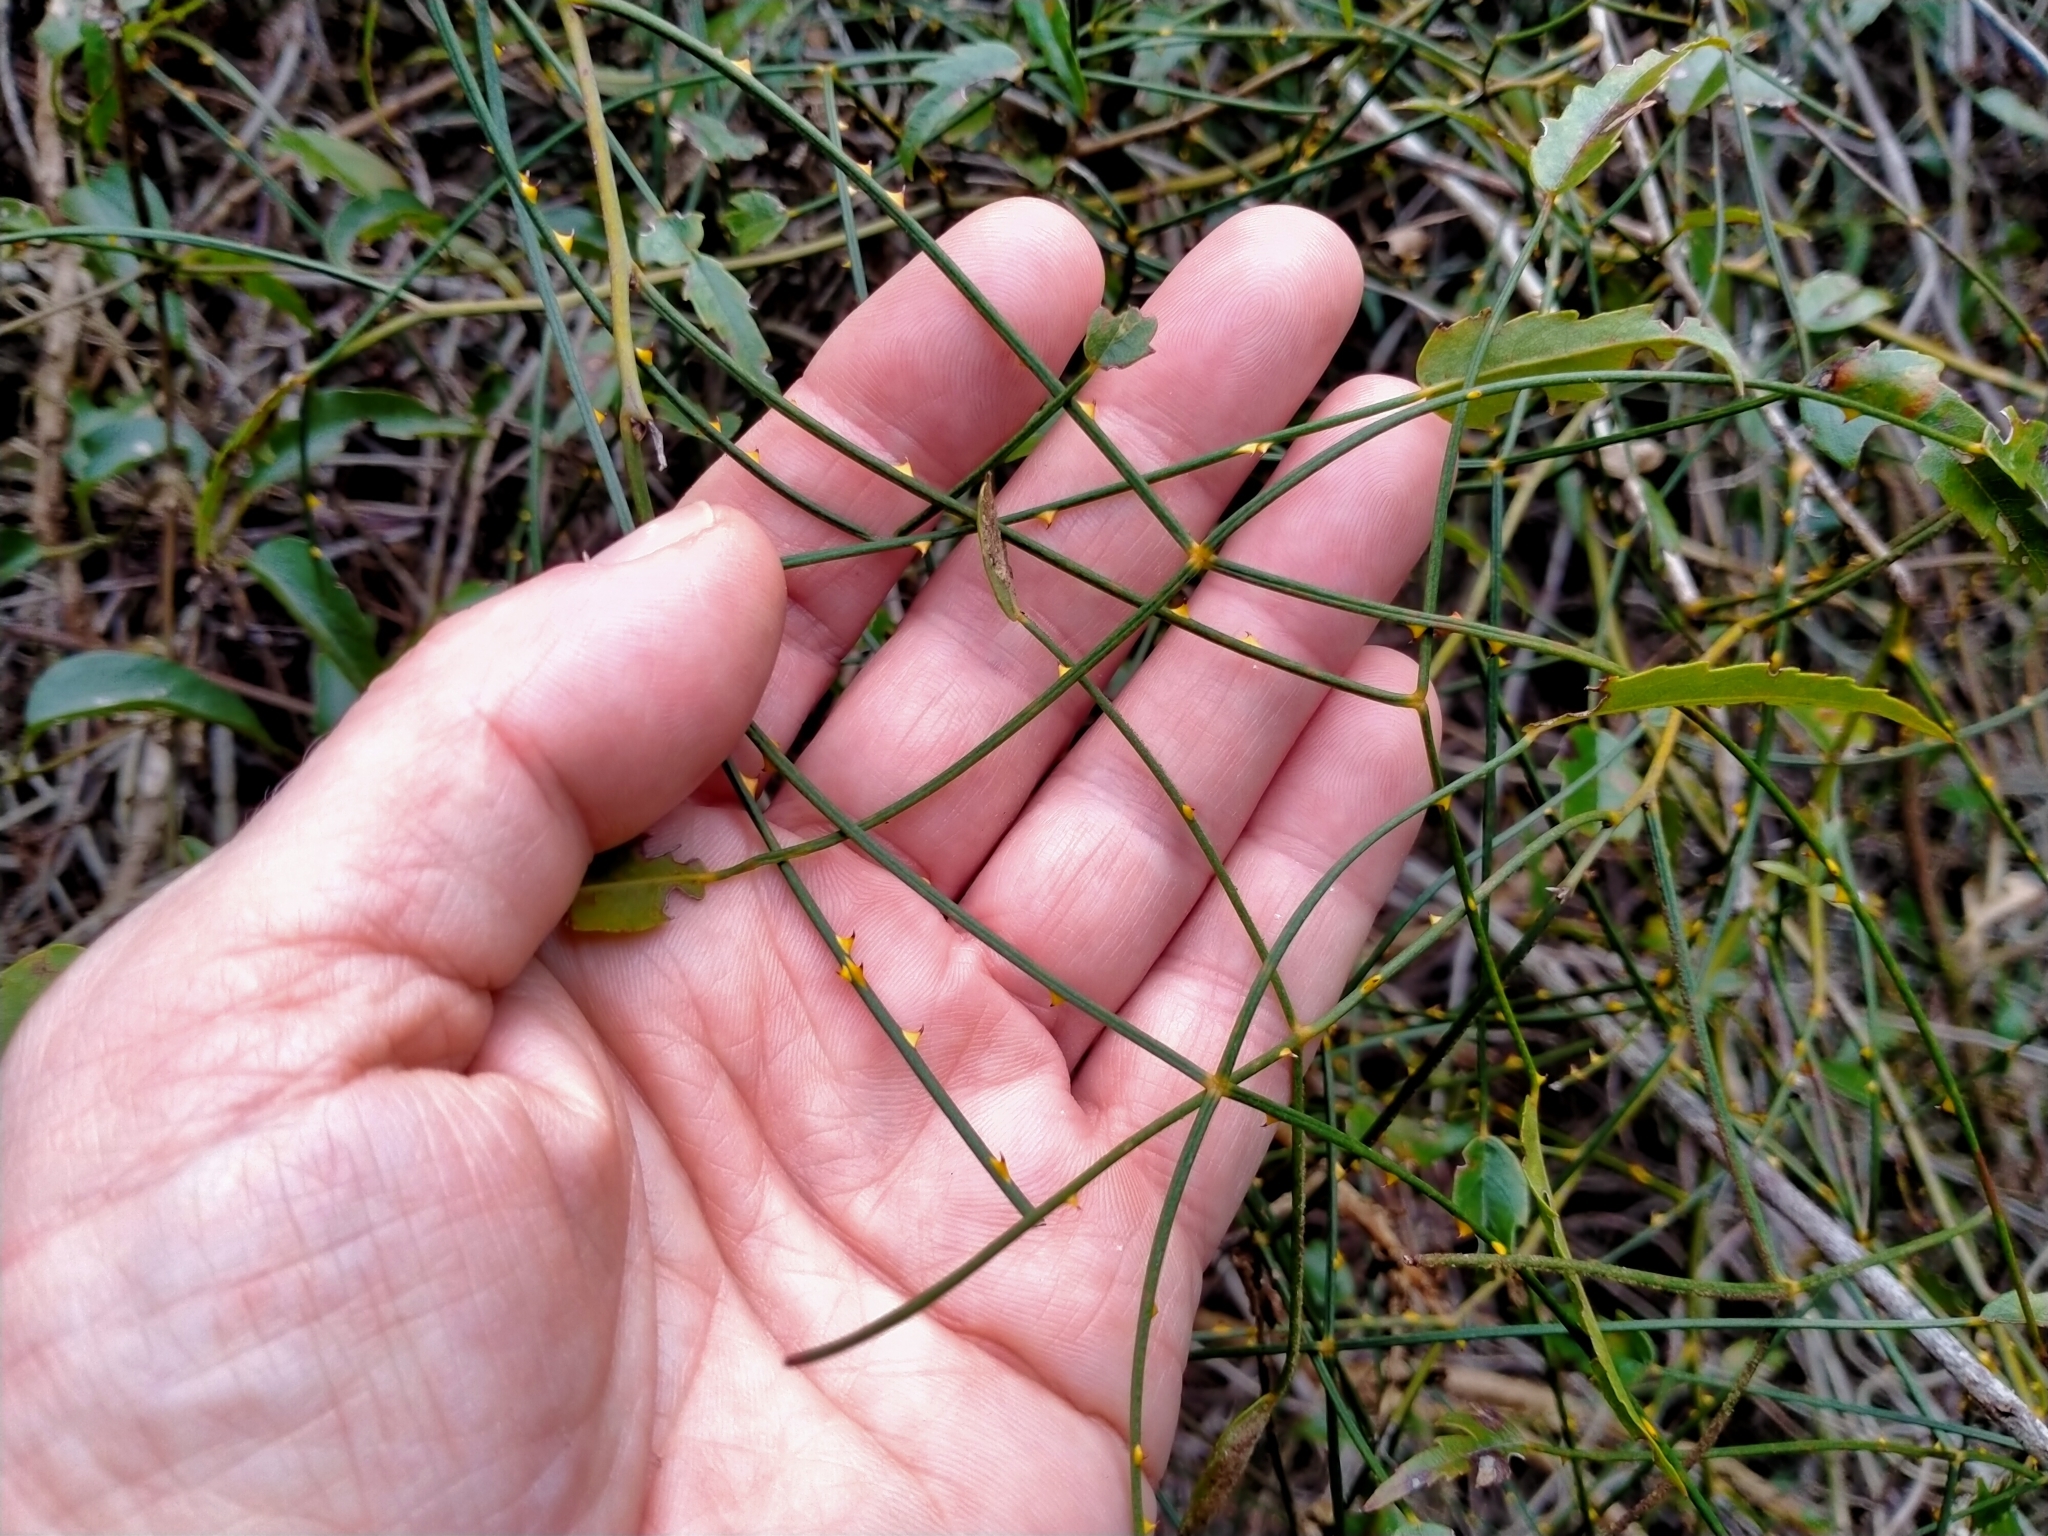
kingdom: Plantae
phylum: Tracheophyta
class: Magnoliopsida
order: Rosales
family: Rosaceae
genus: Rubus
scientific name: Rubus squarrosus
